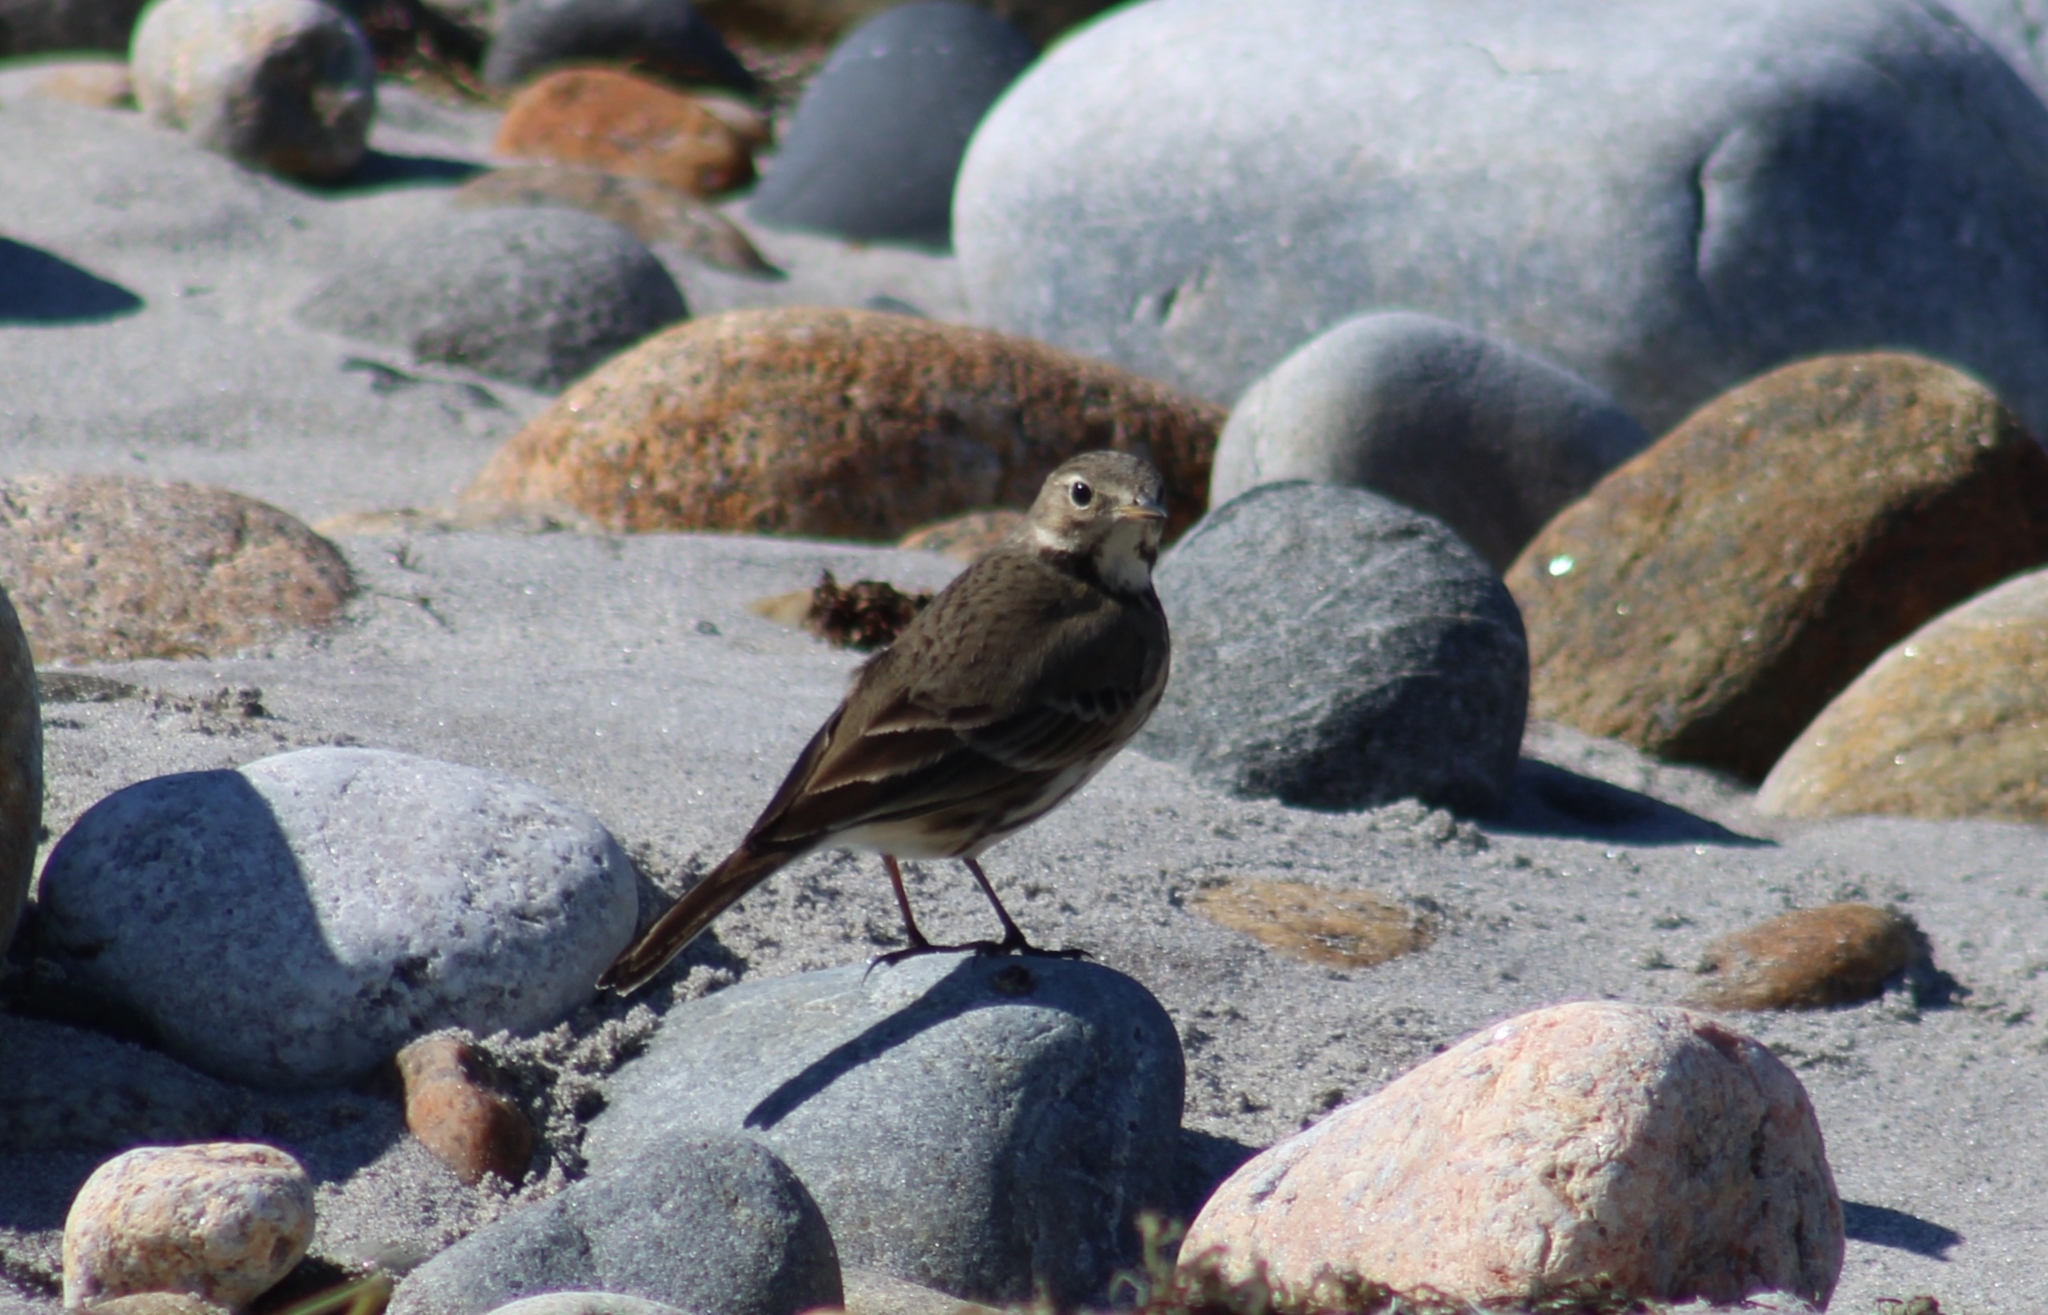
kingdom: Animalia
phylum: Chordata
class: Aves
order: Passeriformes
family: Motacillidae
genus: Anthus
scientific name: Anthus rubescens
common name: Buff-bellied pipit
